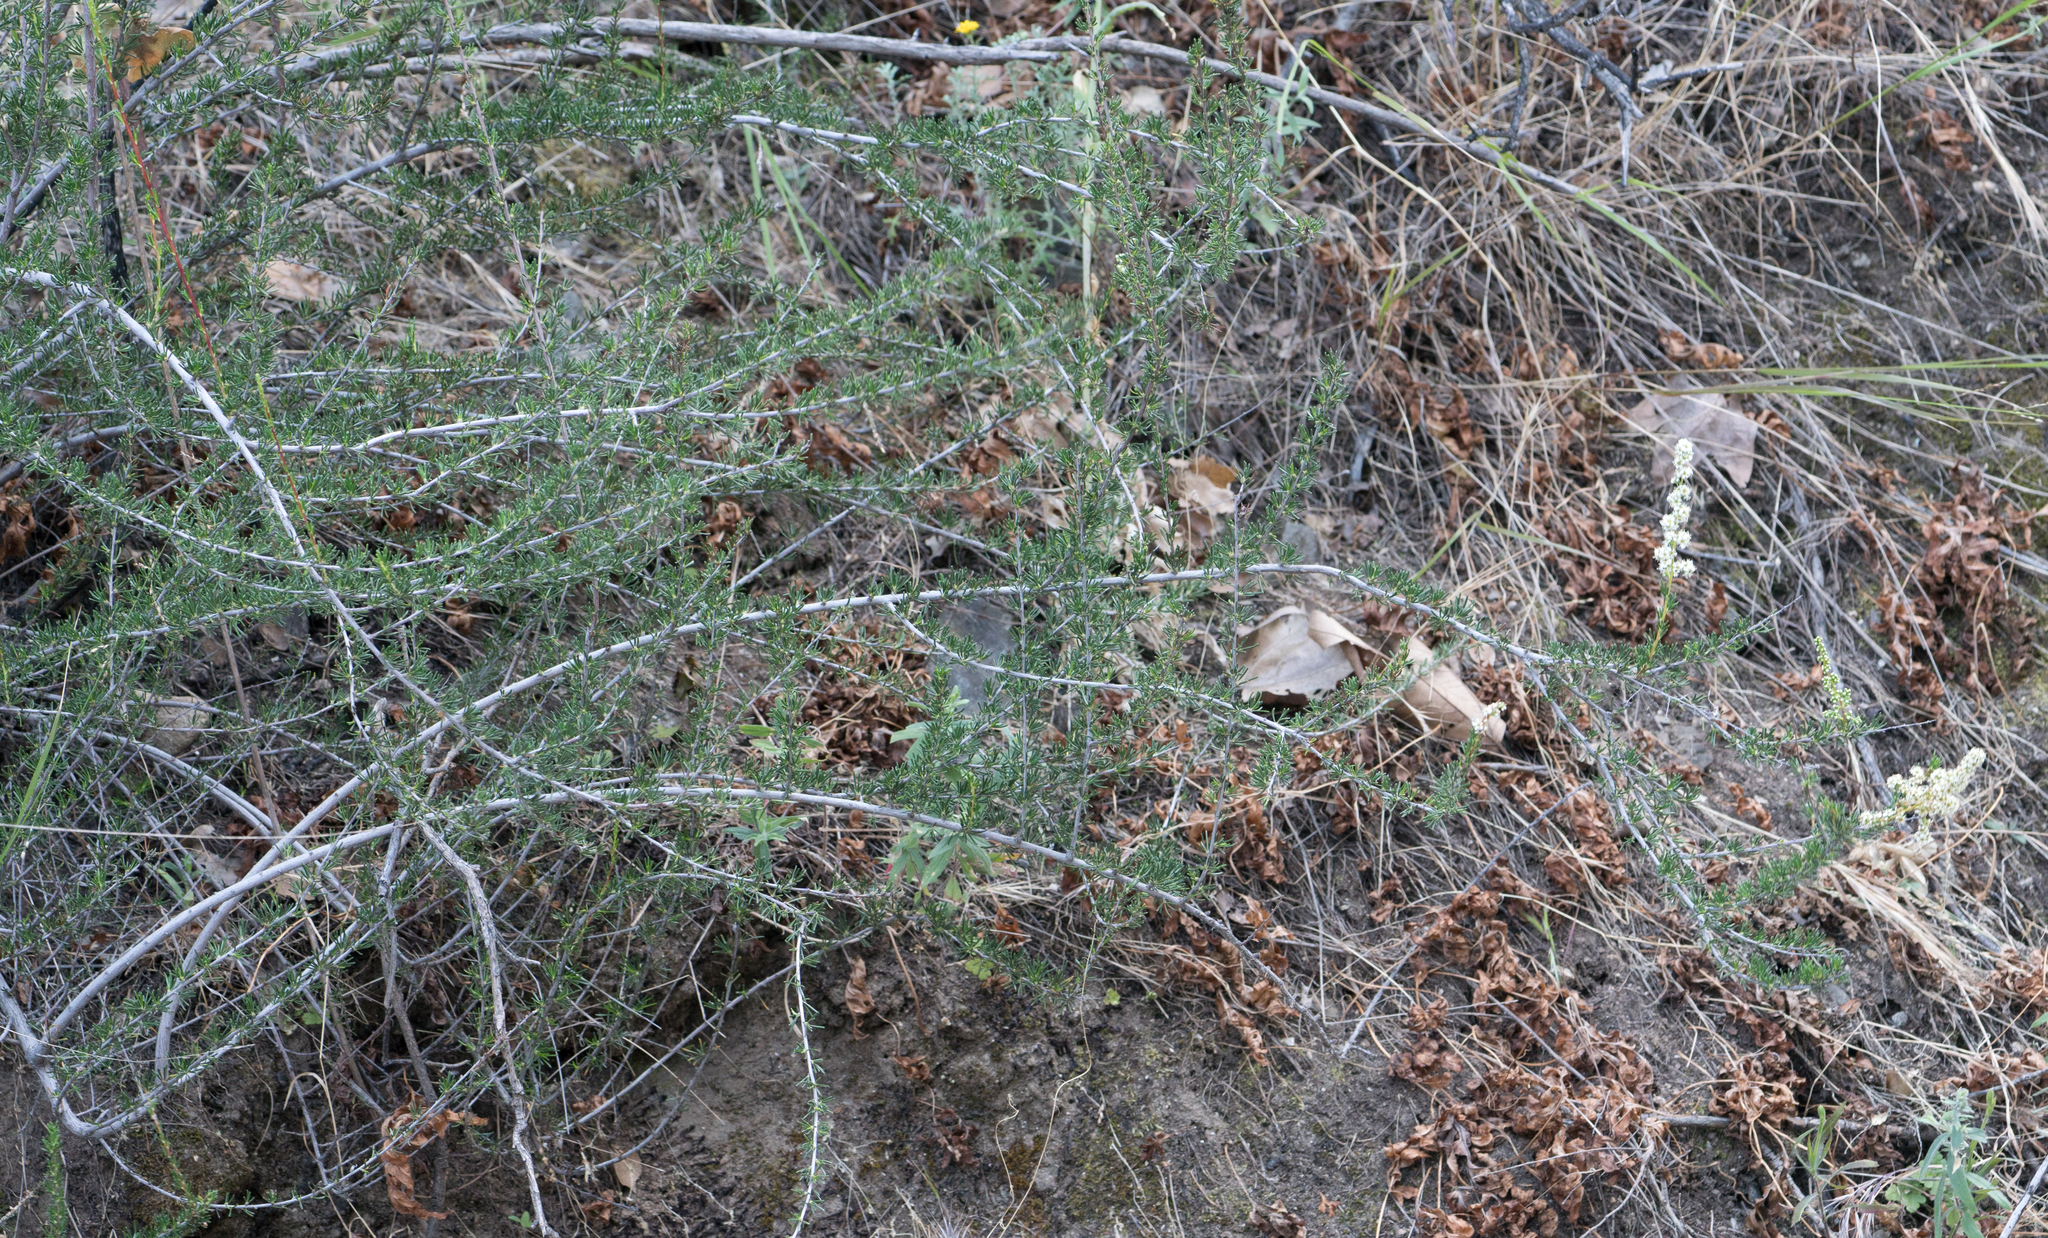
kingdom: Plantae
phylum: Tracheophyta
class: Magnoliopsida
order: Rosales
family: Rosaceae
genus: Adenostoma
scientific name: Adenostoma fasciculatum
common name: Chamise
